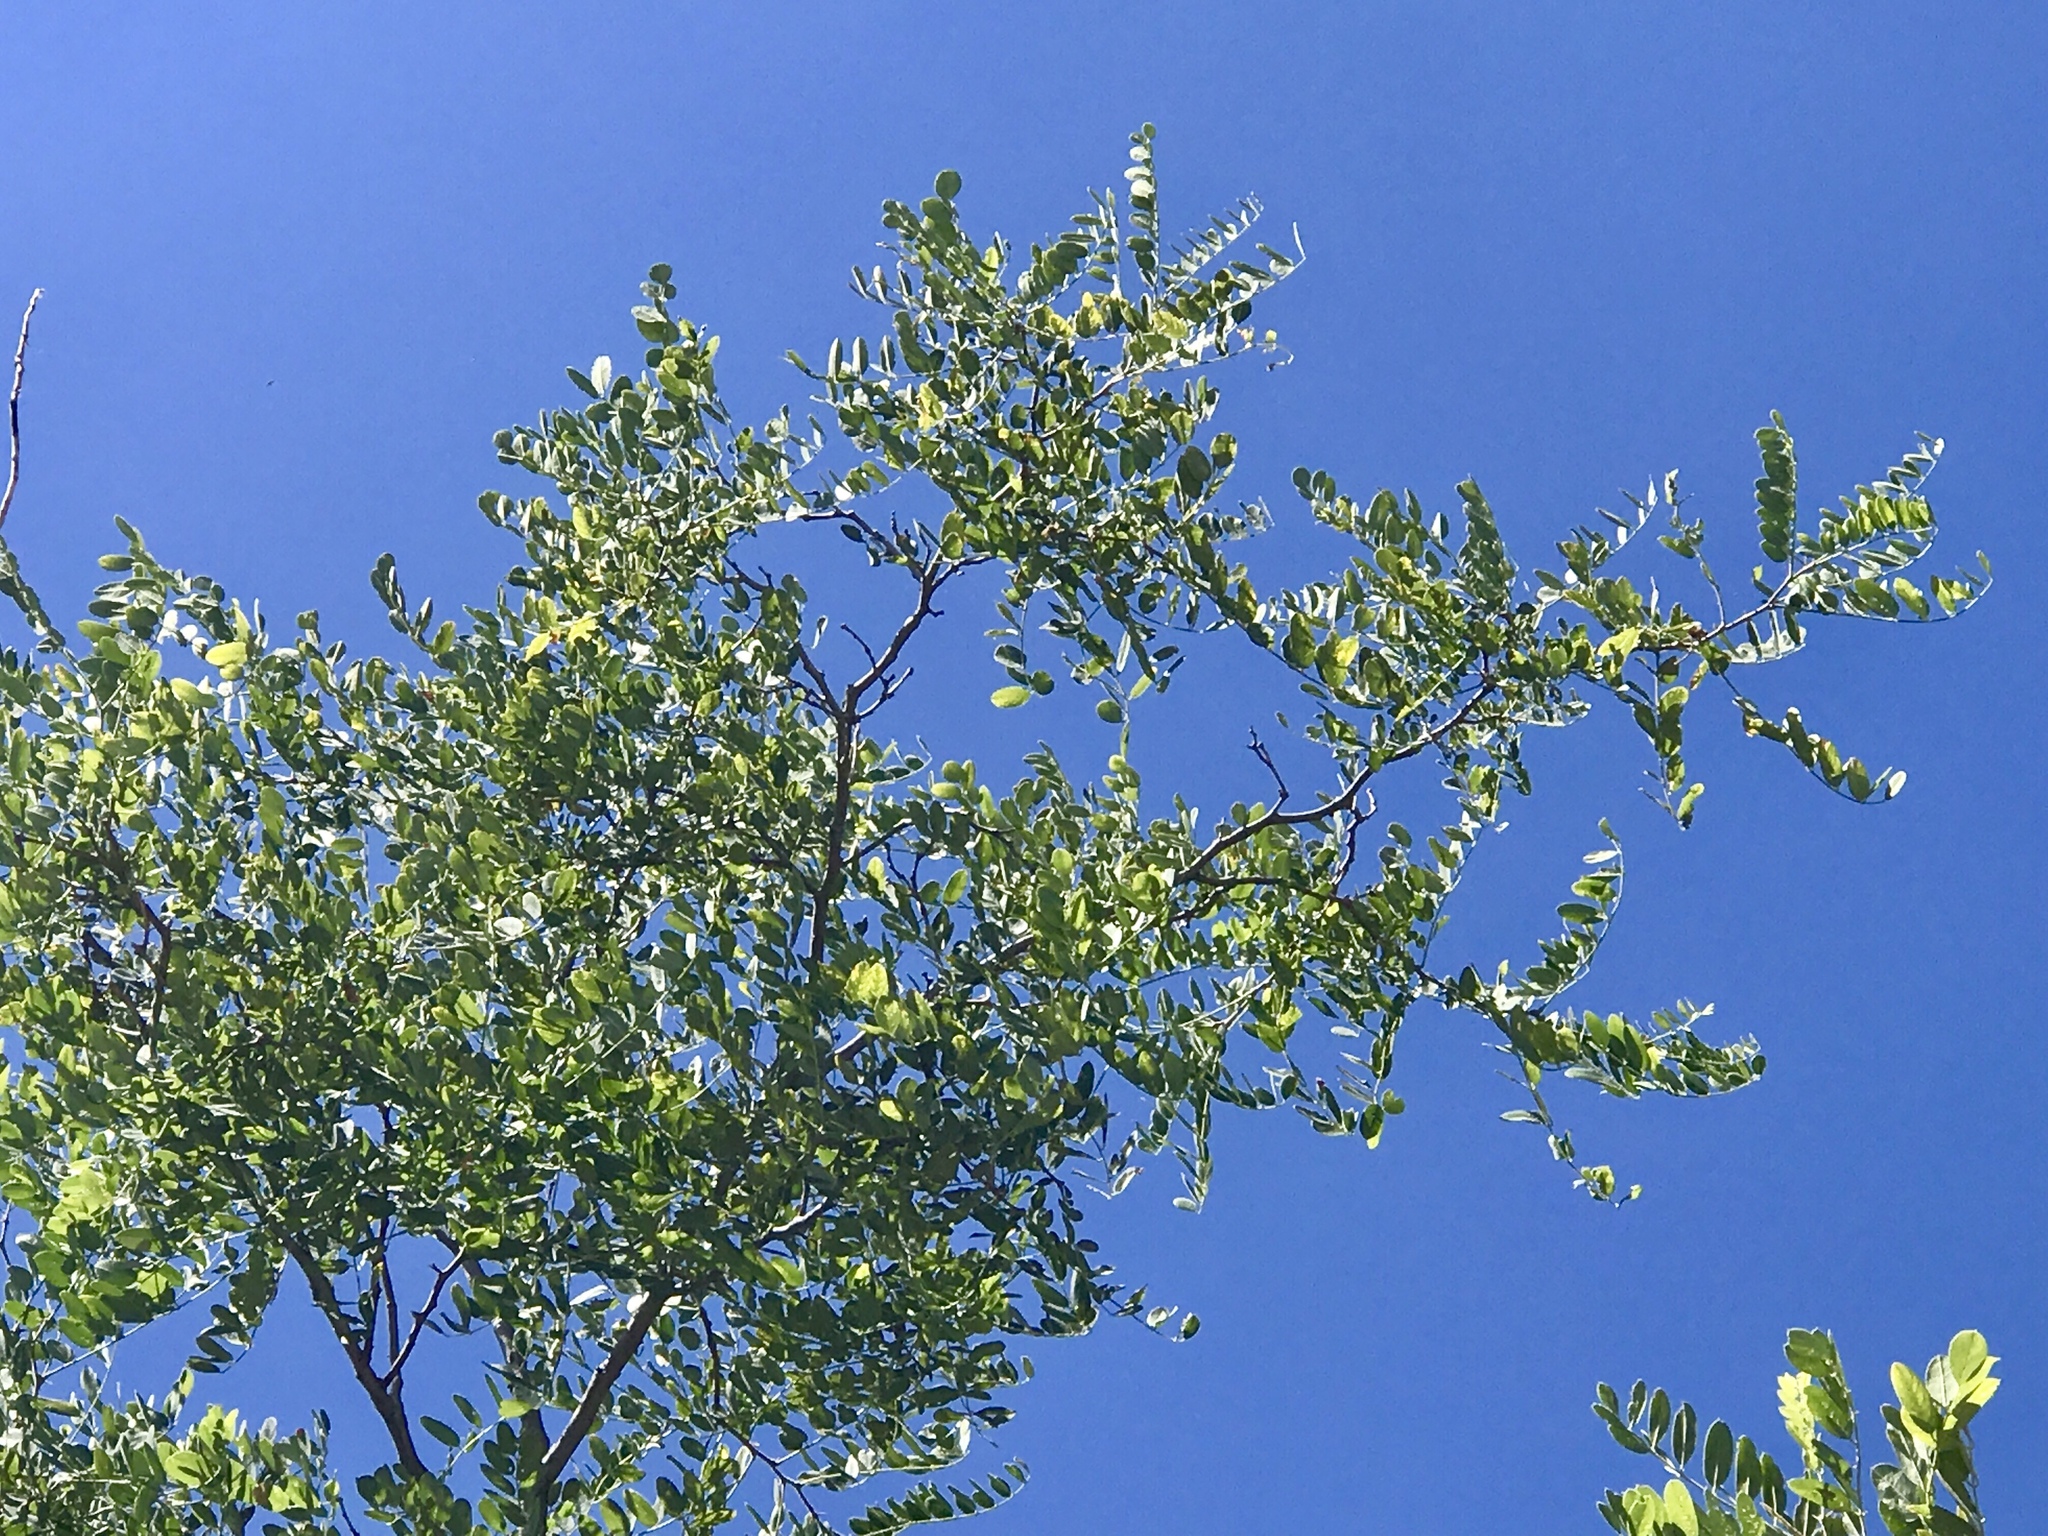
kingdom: Plantae
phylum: Tracheophyta
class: Magnoliopsida
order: Fabales
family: Fabaceae
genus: Robinia
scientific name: Robinia neomexicana
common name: New mexico locust
